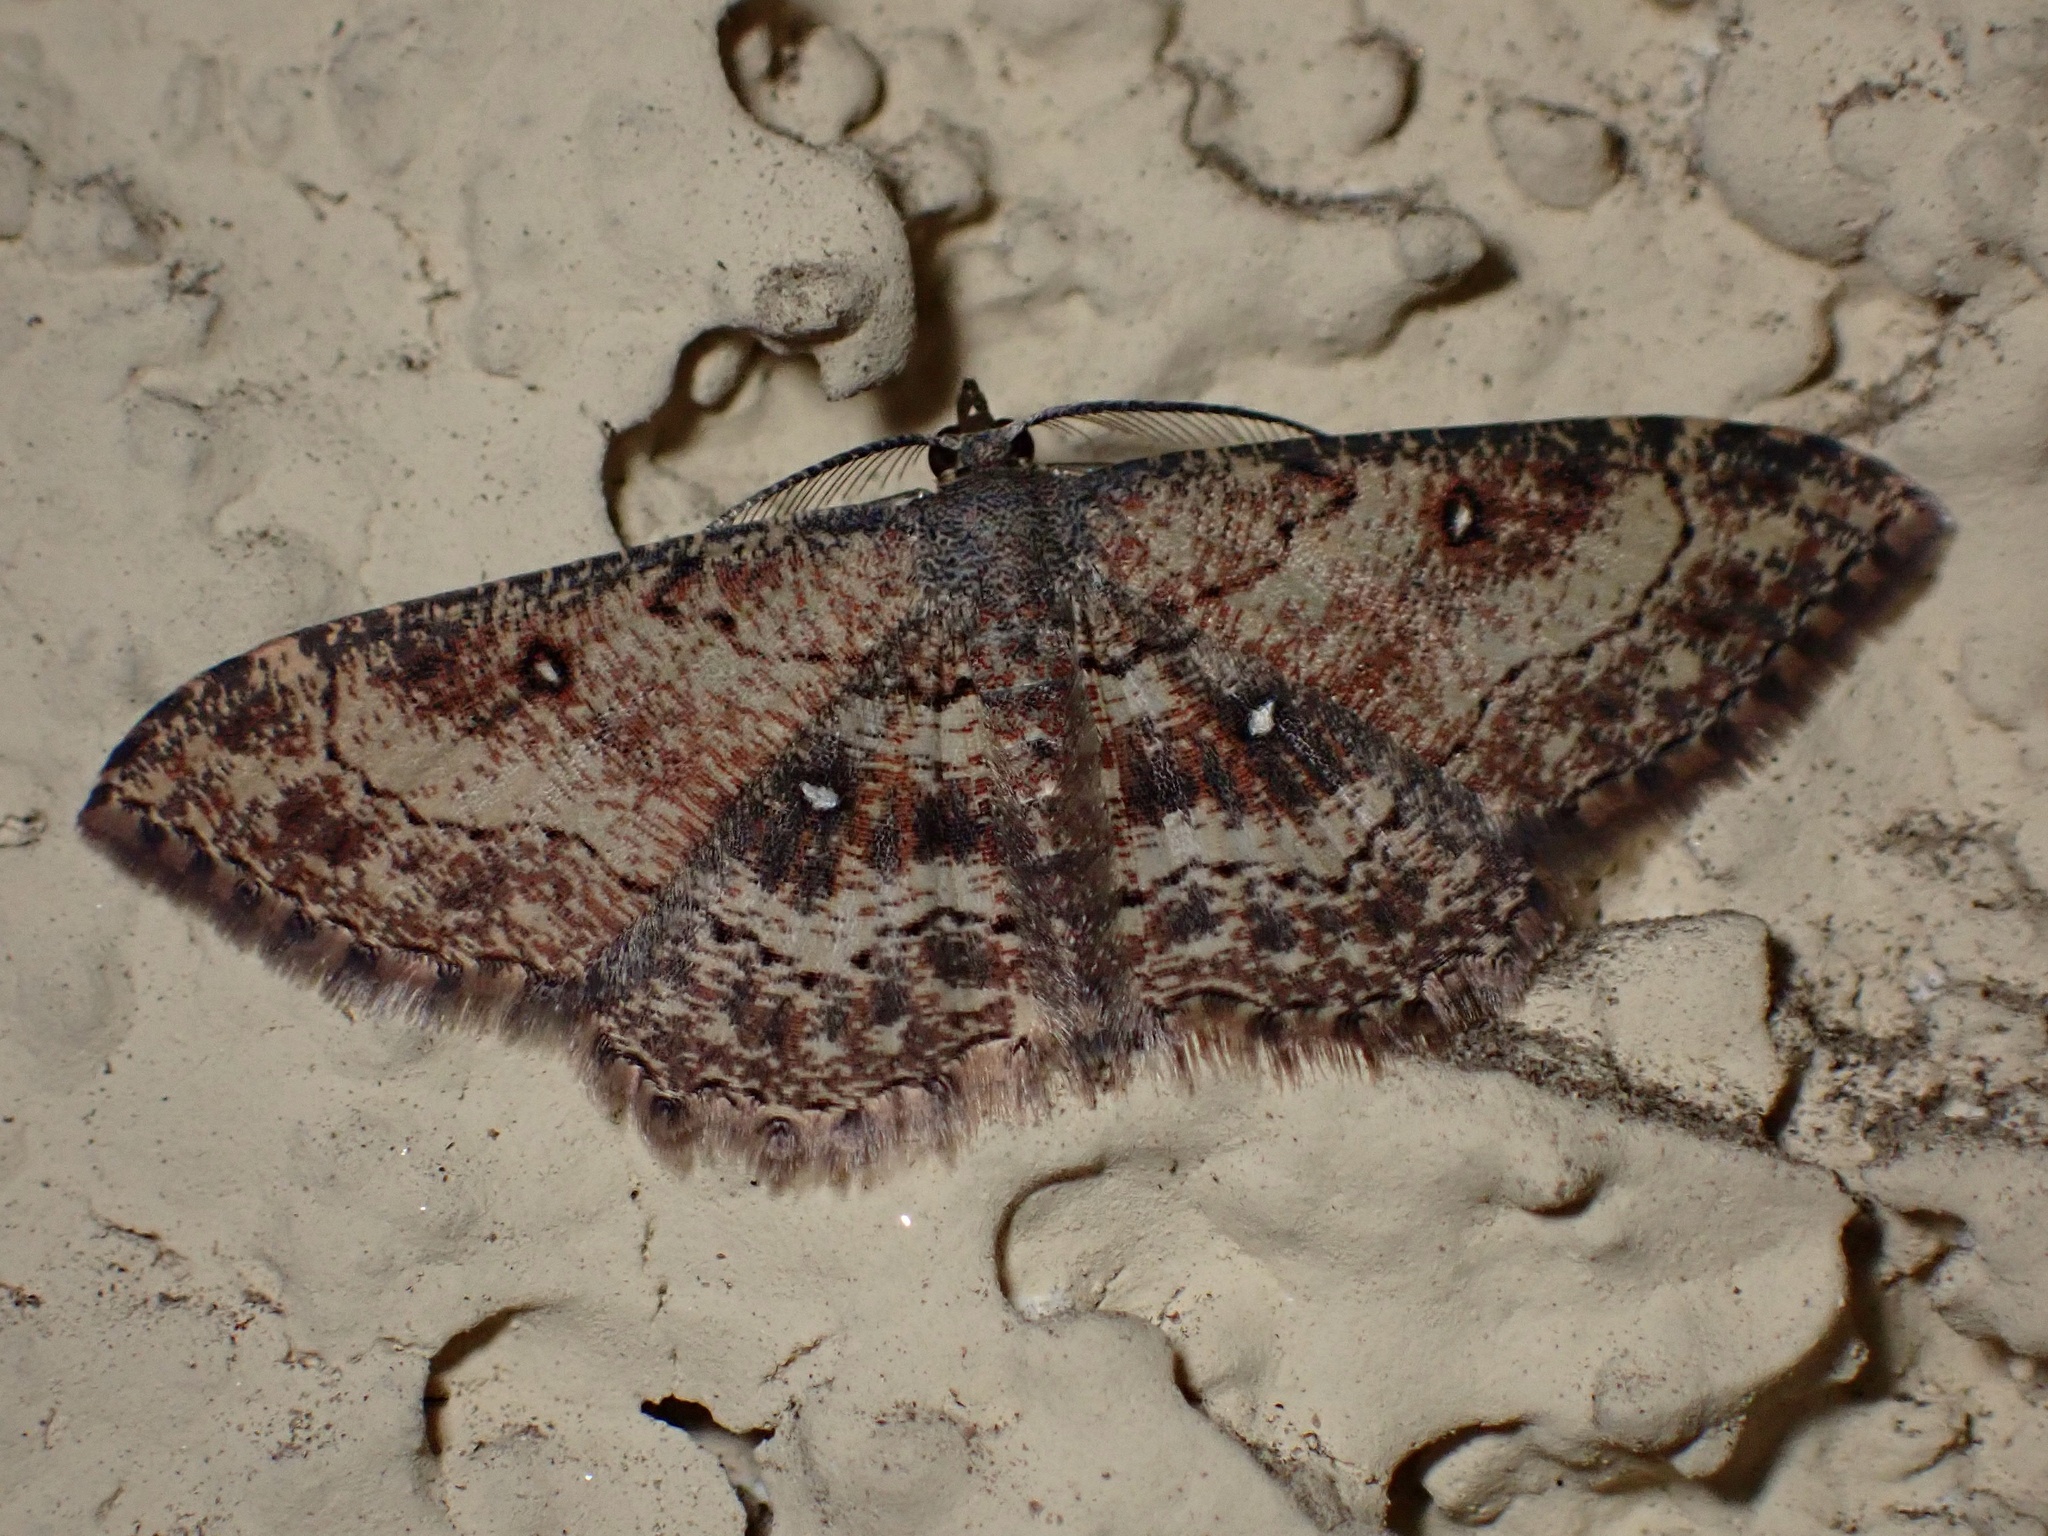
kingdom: Animalia
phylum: Arthropoda
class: Insecta
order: Lepidoptera
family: Geometridae
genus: Cyclophora
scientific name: Cyclophora nanaria
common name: Cankerworm
